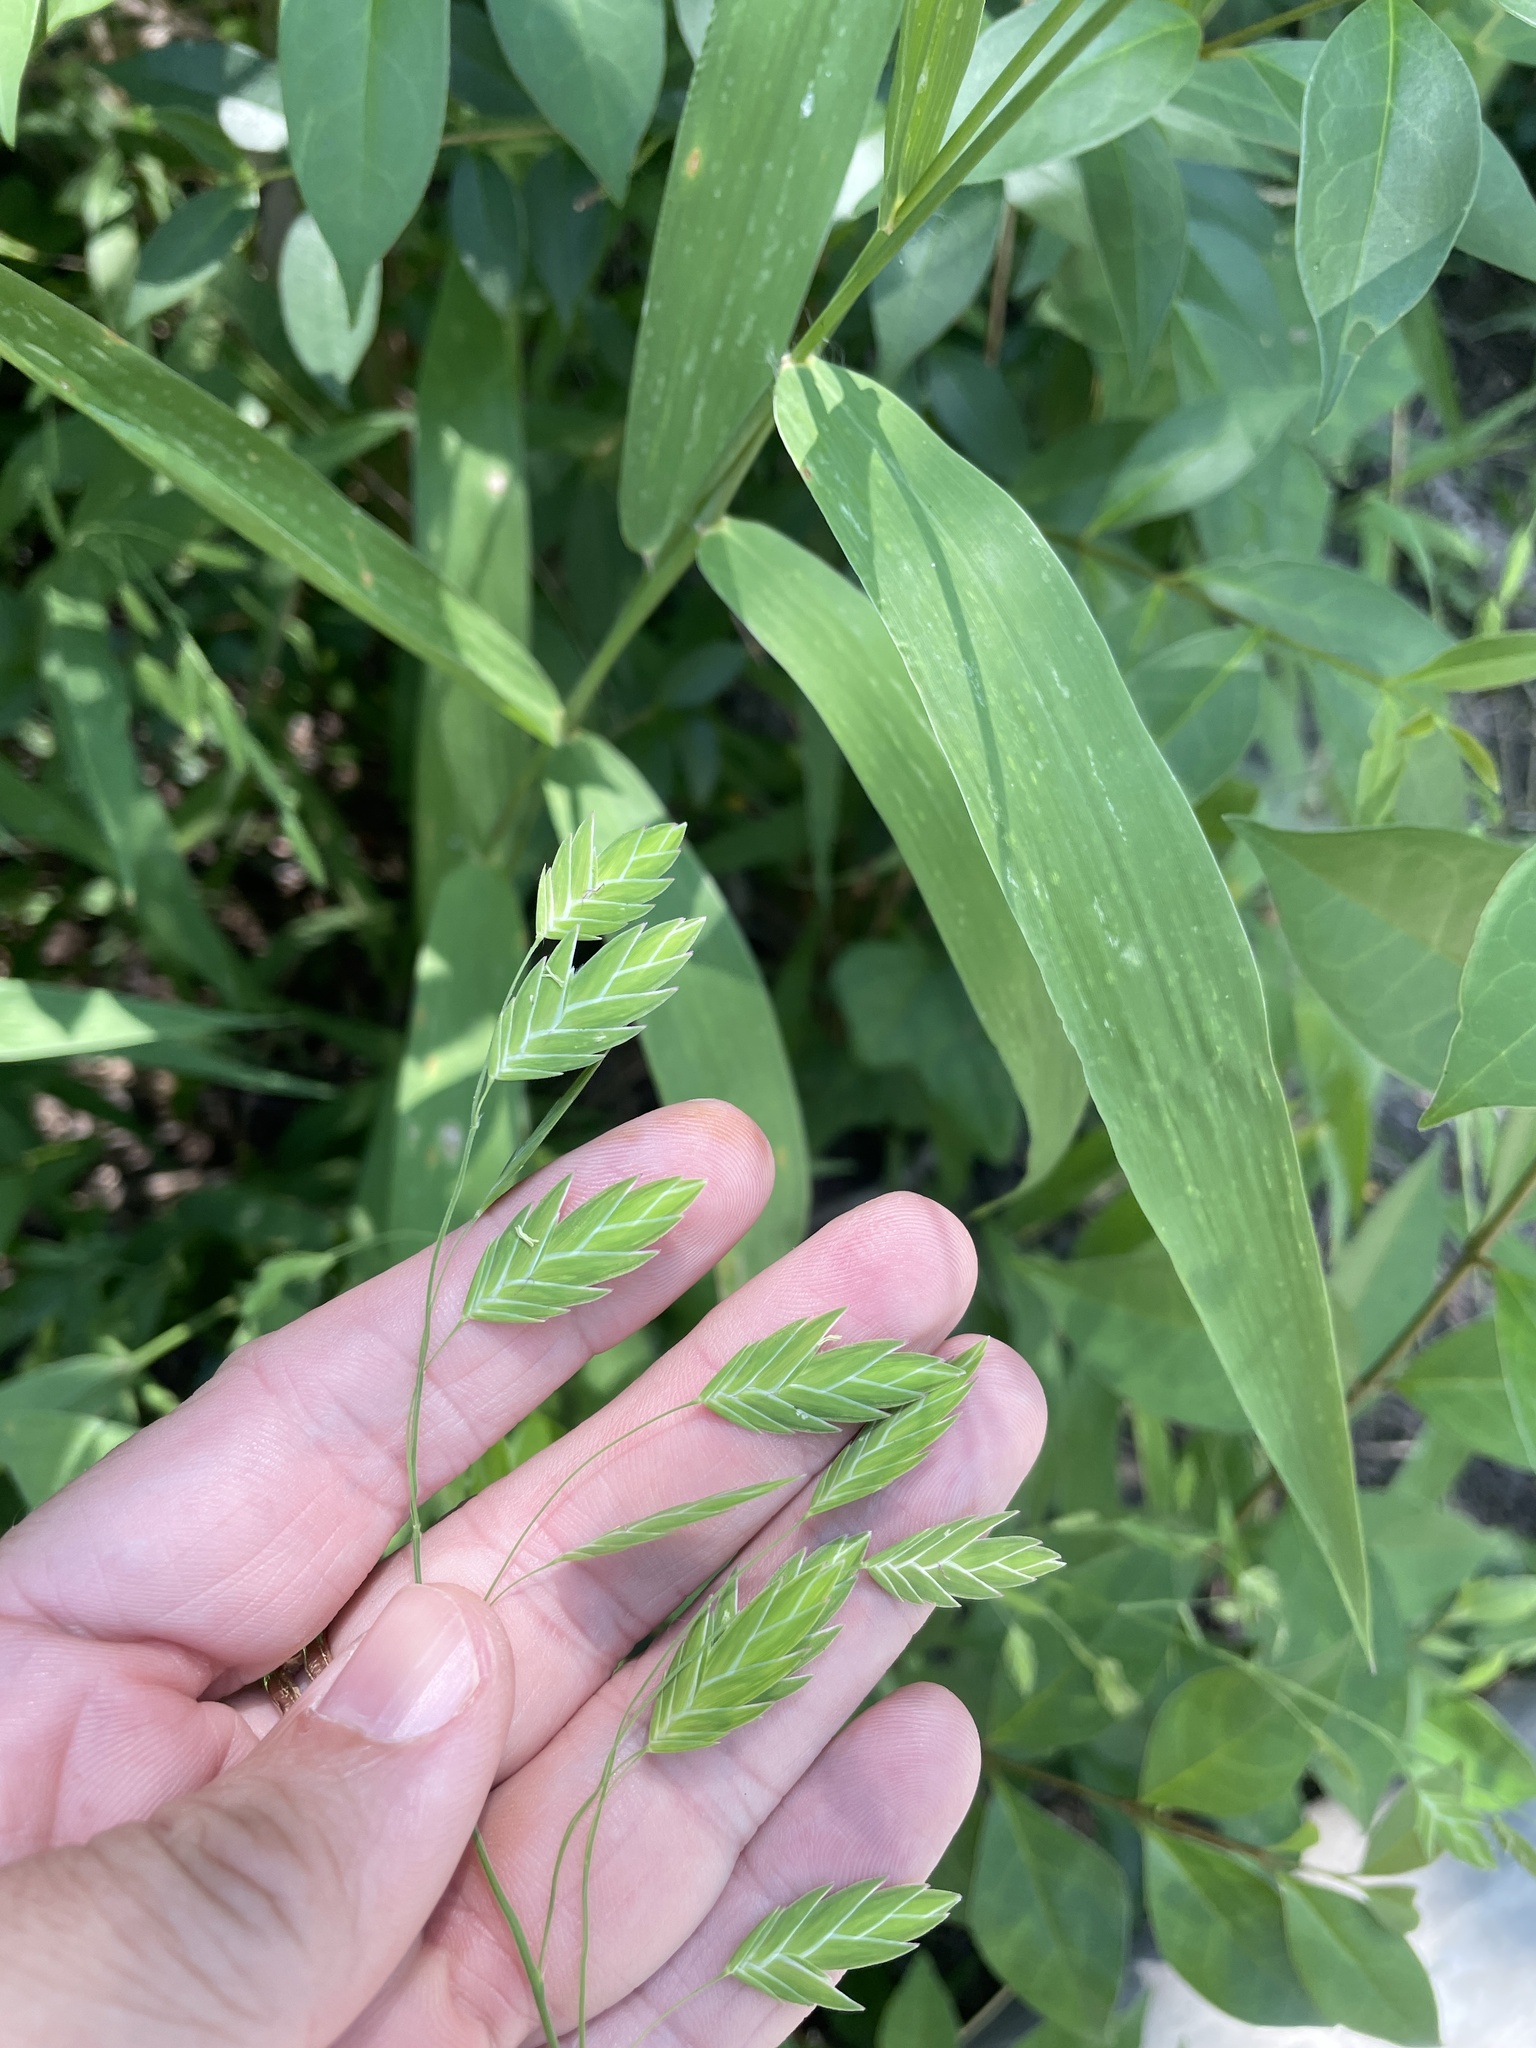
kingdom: Plantae
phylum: Tracheophyta
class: Liliopsida
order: Poales
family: Poaceae
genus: Chasmanthium
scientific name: Chasmanthium latifolium
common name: Broad-leaved chasmanthium
